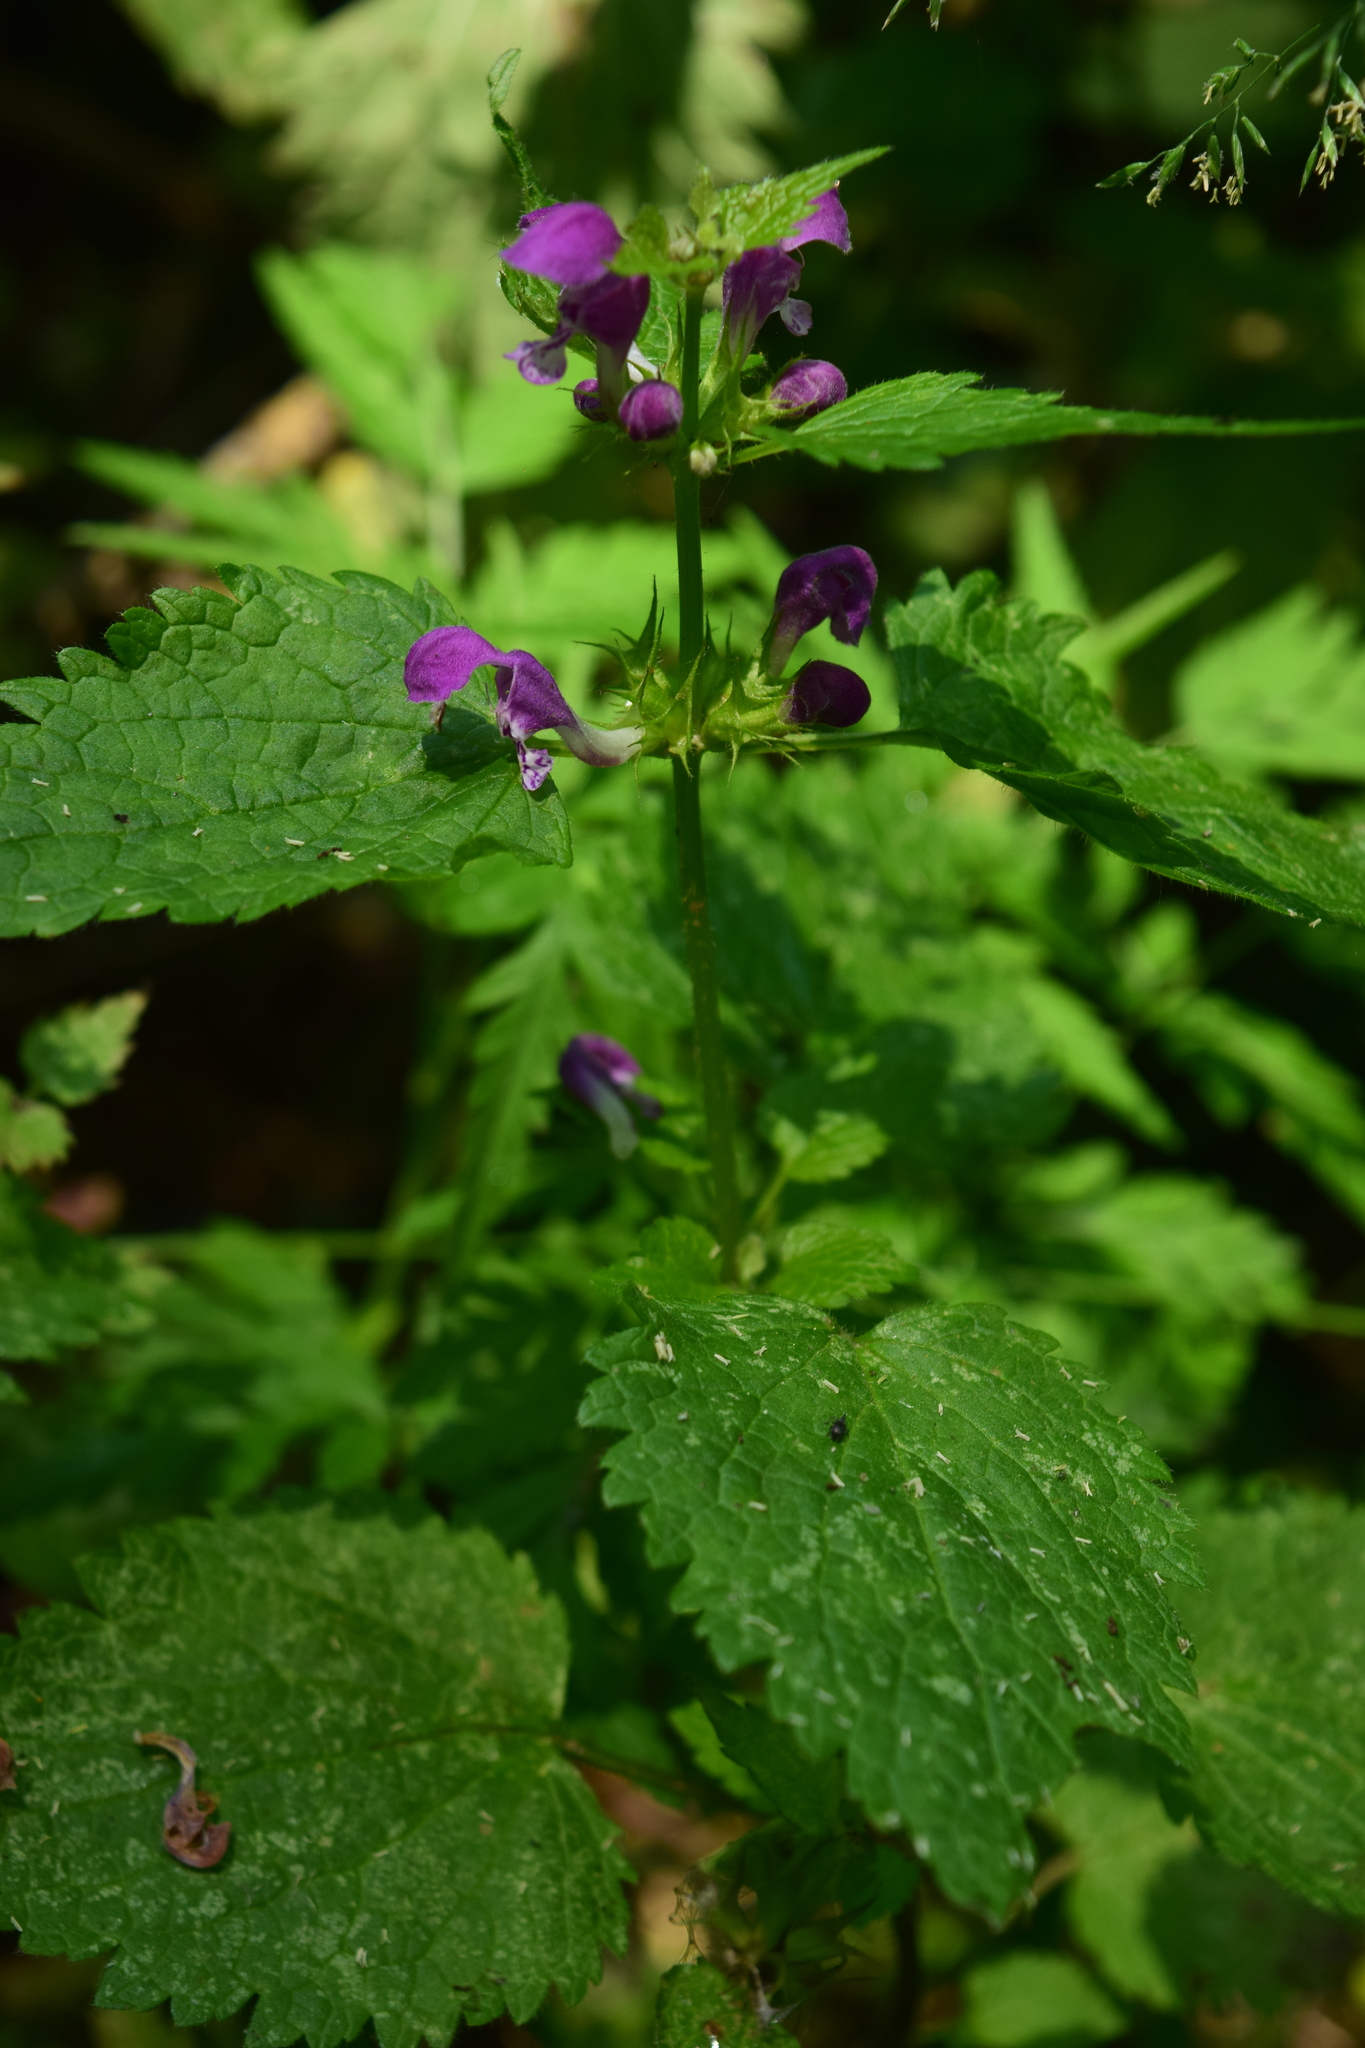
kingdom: Plantae
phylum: Tracheophyta
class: Magnoliopsida
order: Lamiales
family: Lamiaceae
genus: Lamium
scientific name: Lamium maculatum
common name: Spotted dead-nettle
